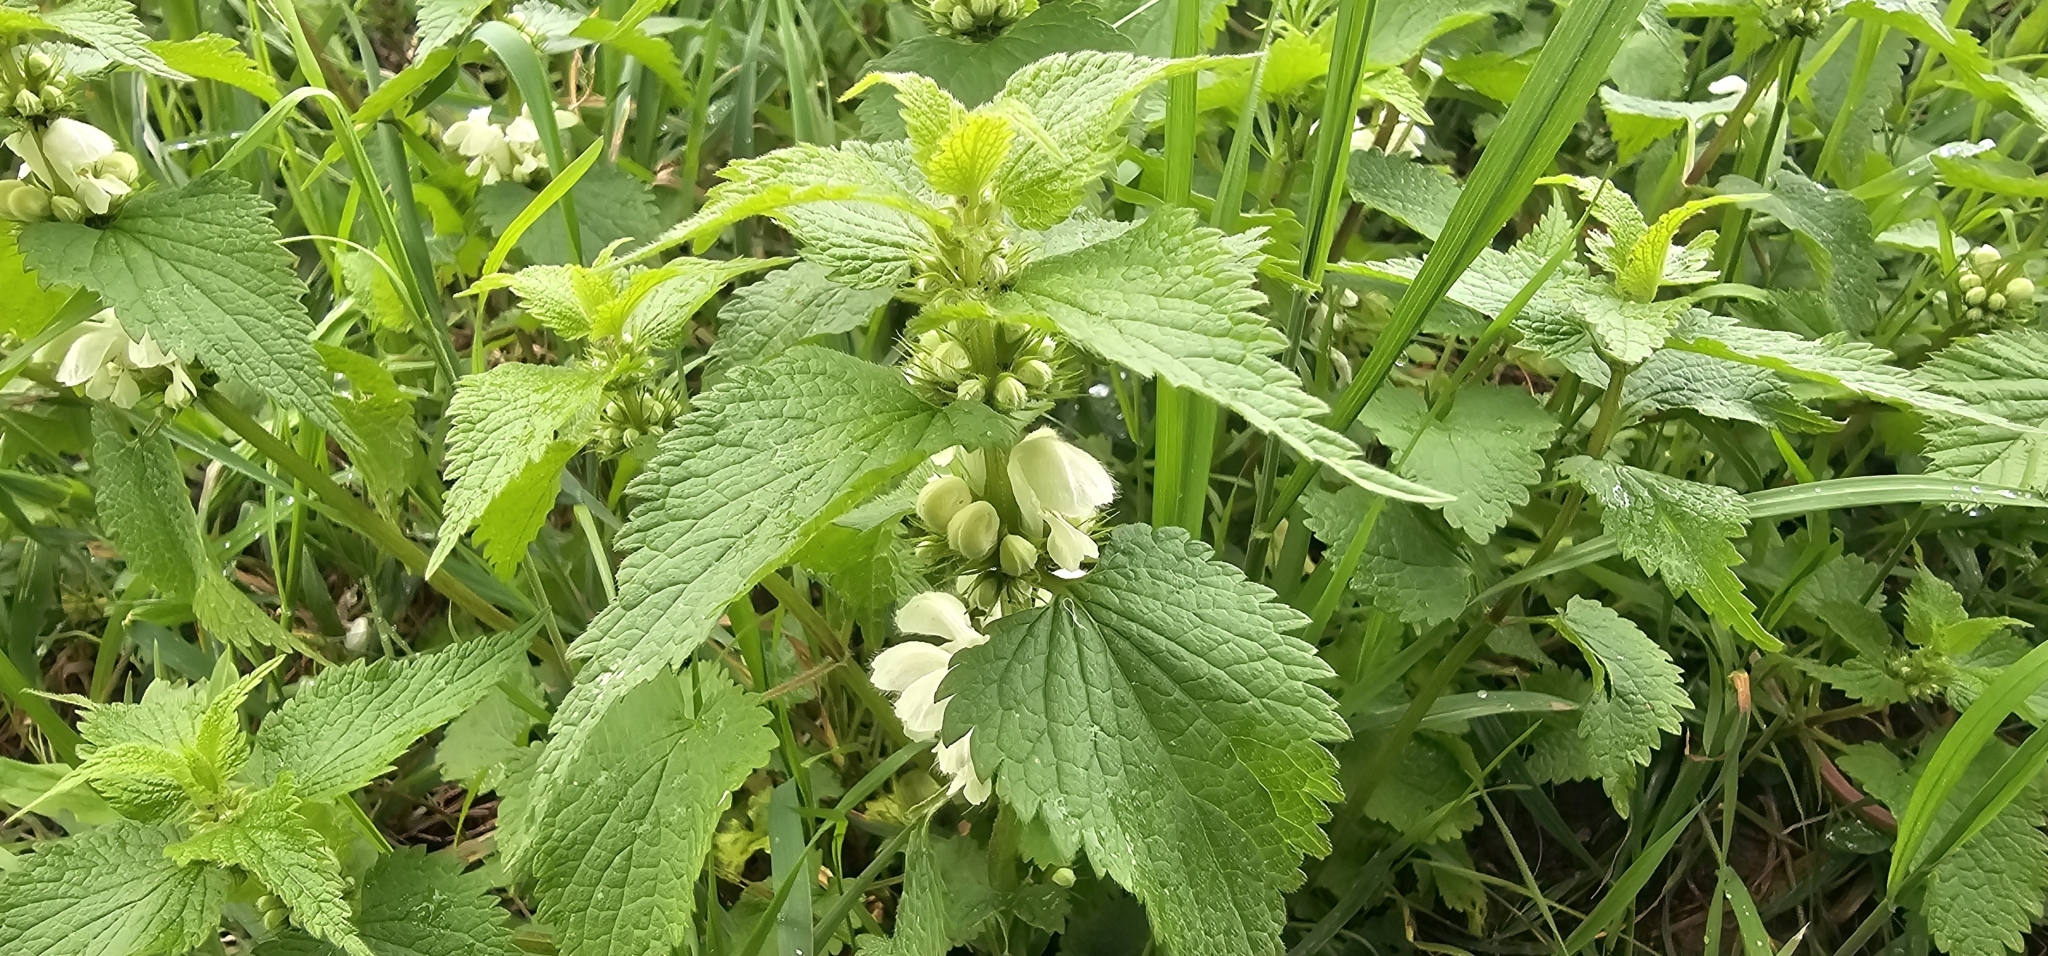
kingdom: Plantae
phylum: Tracheophyta
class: Magnoliopsida
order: Lamiales
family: Lamiaceae
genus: Lamium
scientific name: Lamium album
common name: White dead-nettle
